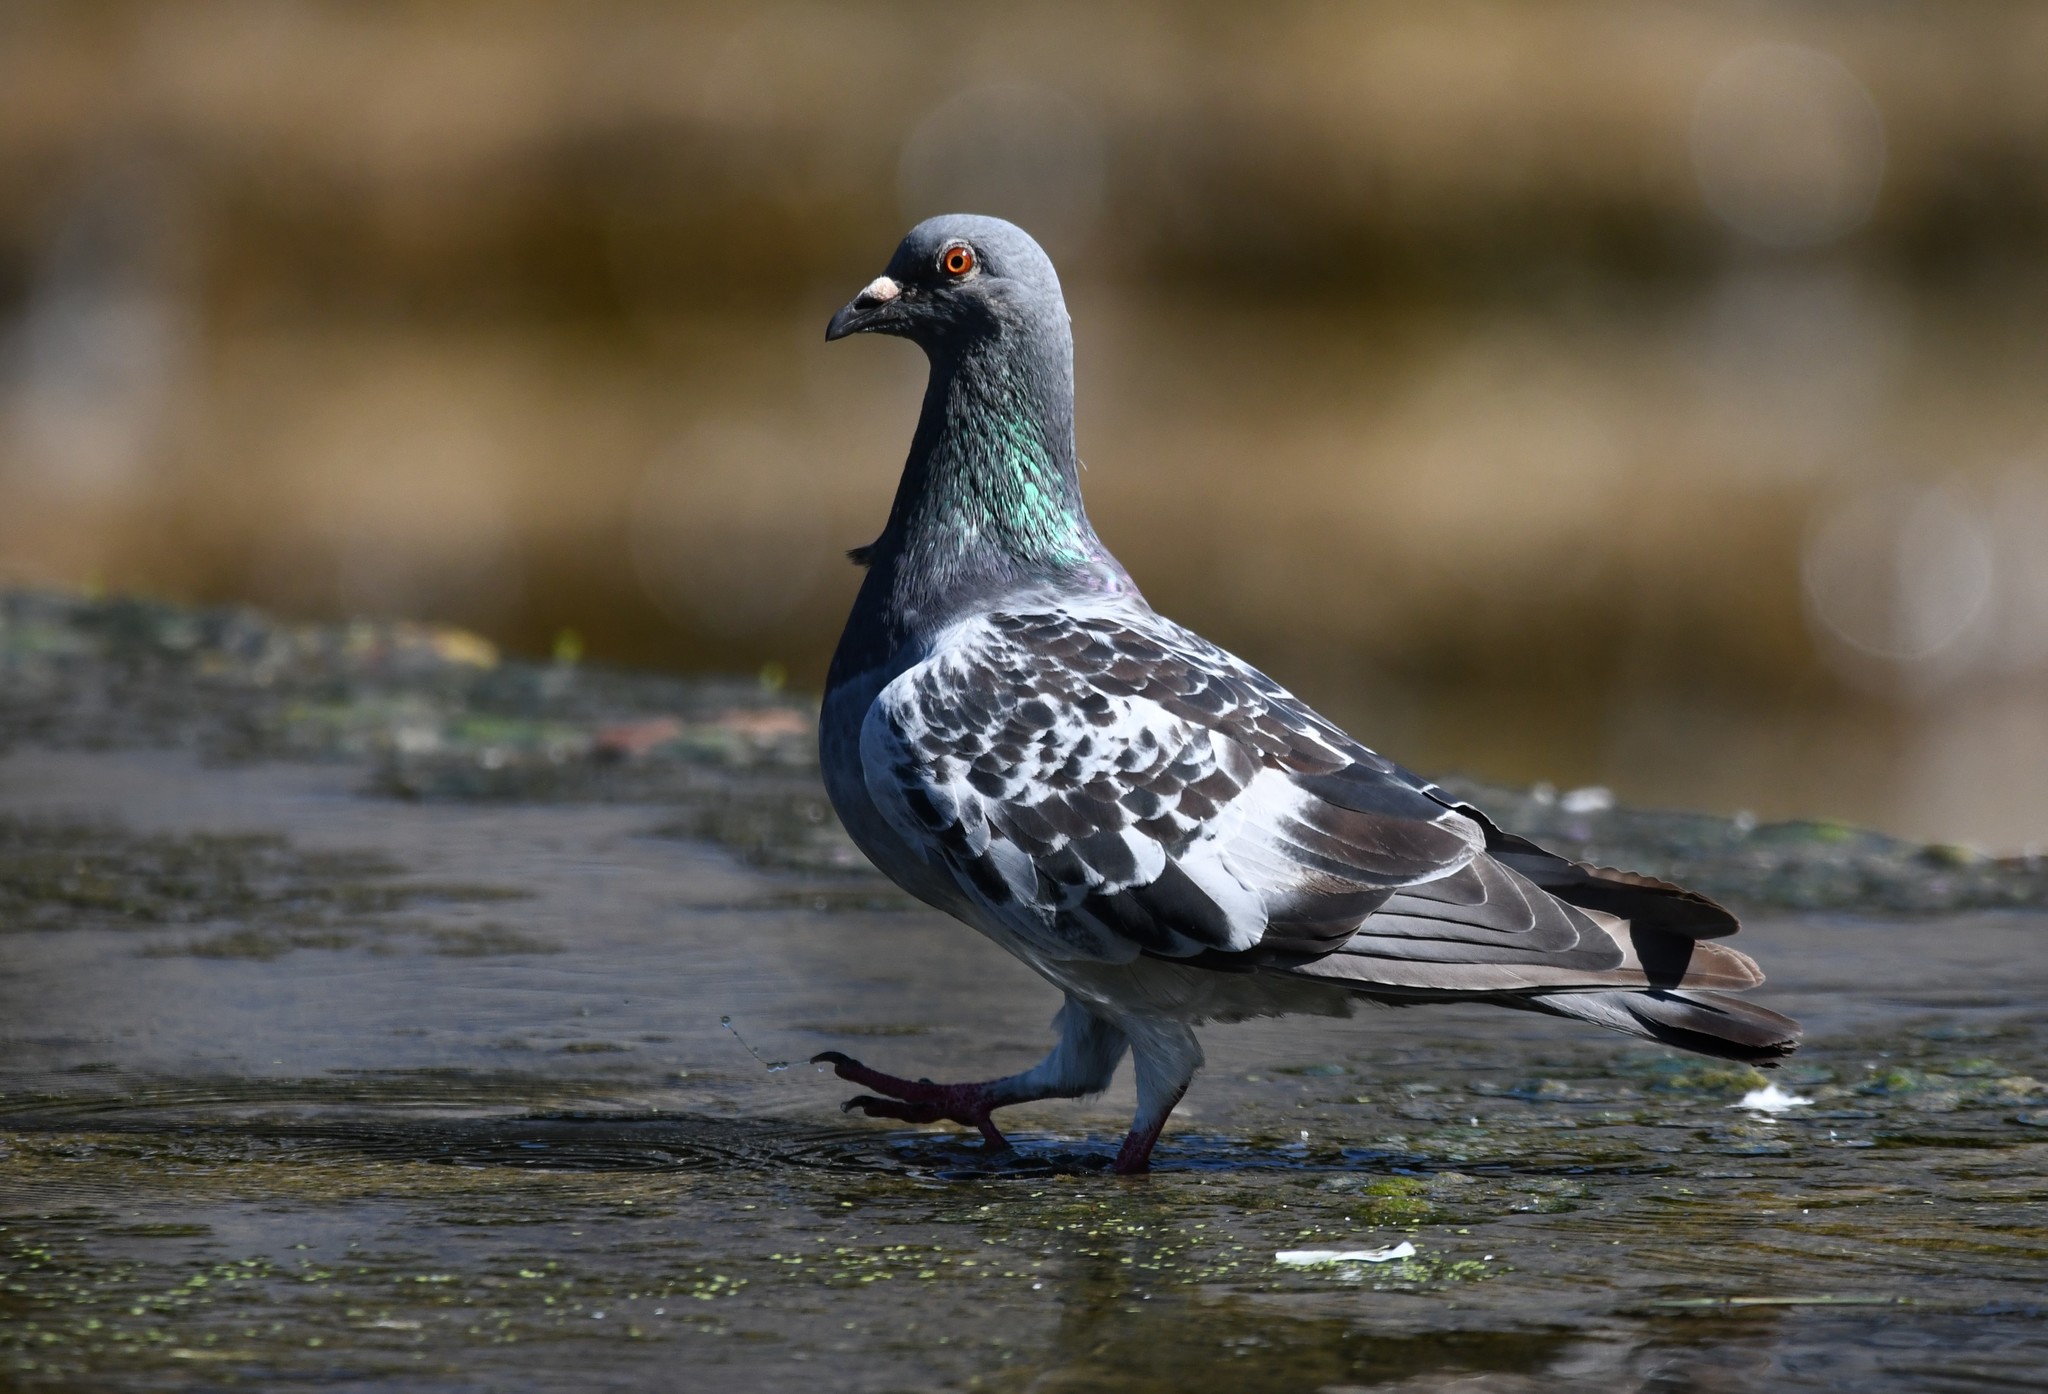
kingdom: Animalia
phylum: Chordata
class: Aves
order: Columbiformes
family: Columbidae
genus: Columba
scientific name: Columba livia
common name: Rock pigeon
